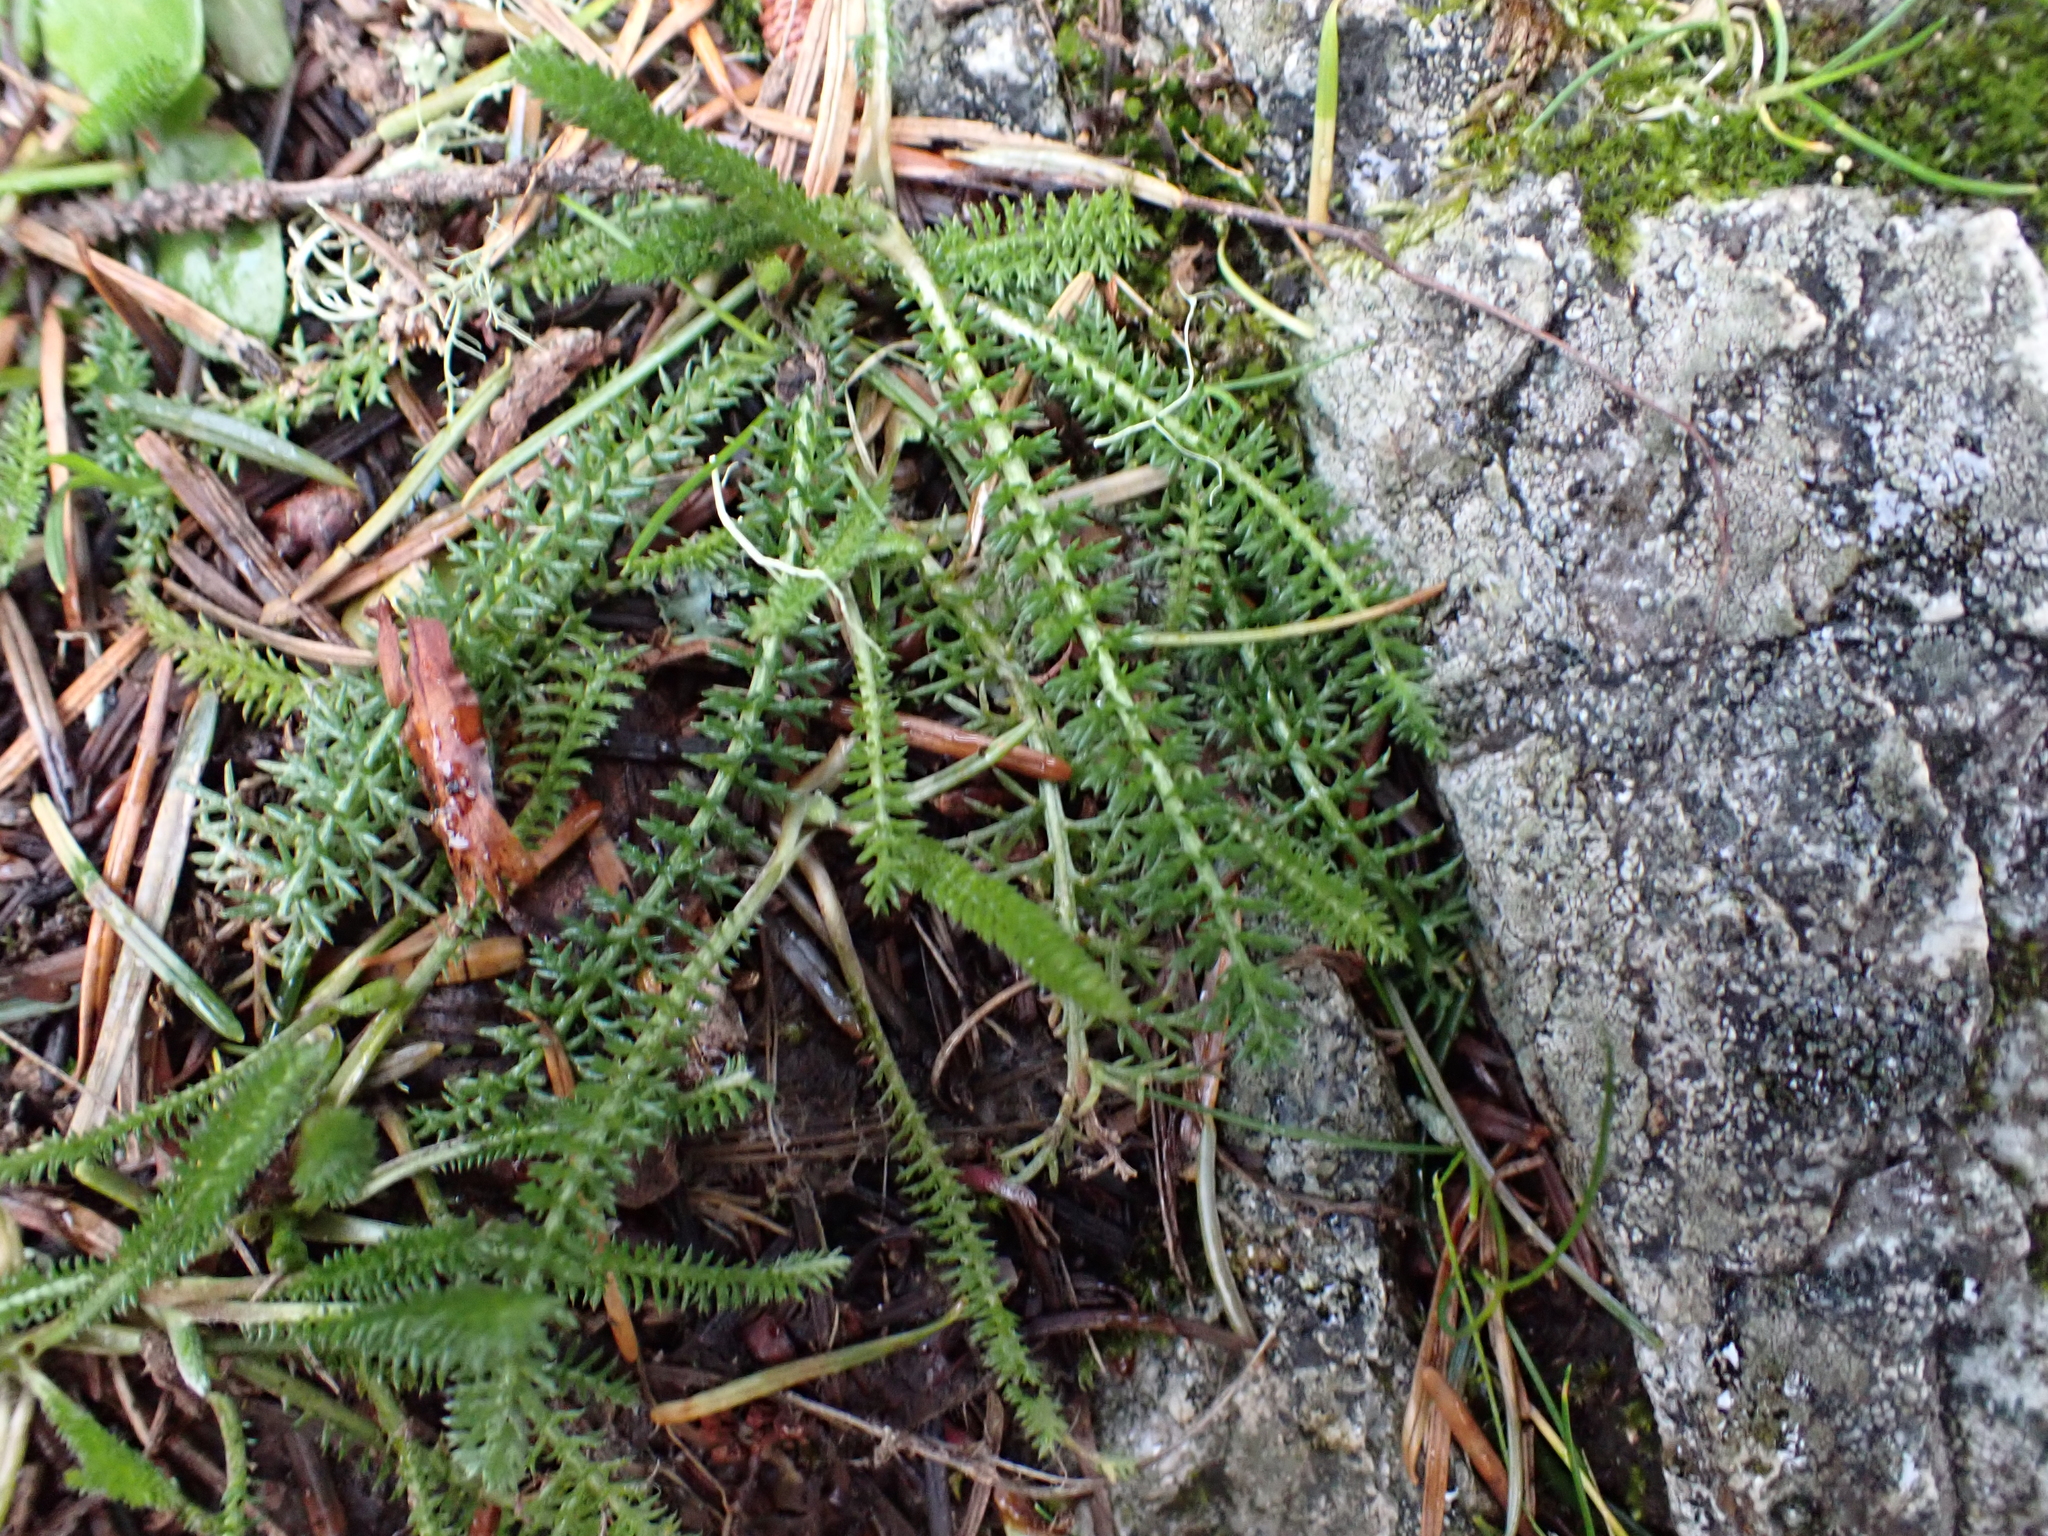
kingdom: Plantae
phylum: Tracheophyta
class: Magnoliopsida
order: Asterales
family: Asteraceae
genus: Achillea
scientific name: Achillea millefolium
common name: Yarrow
